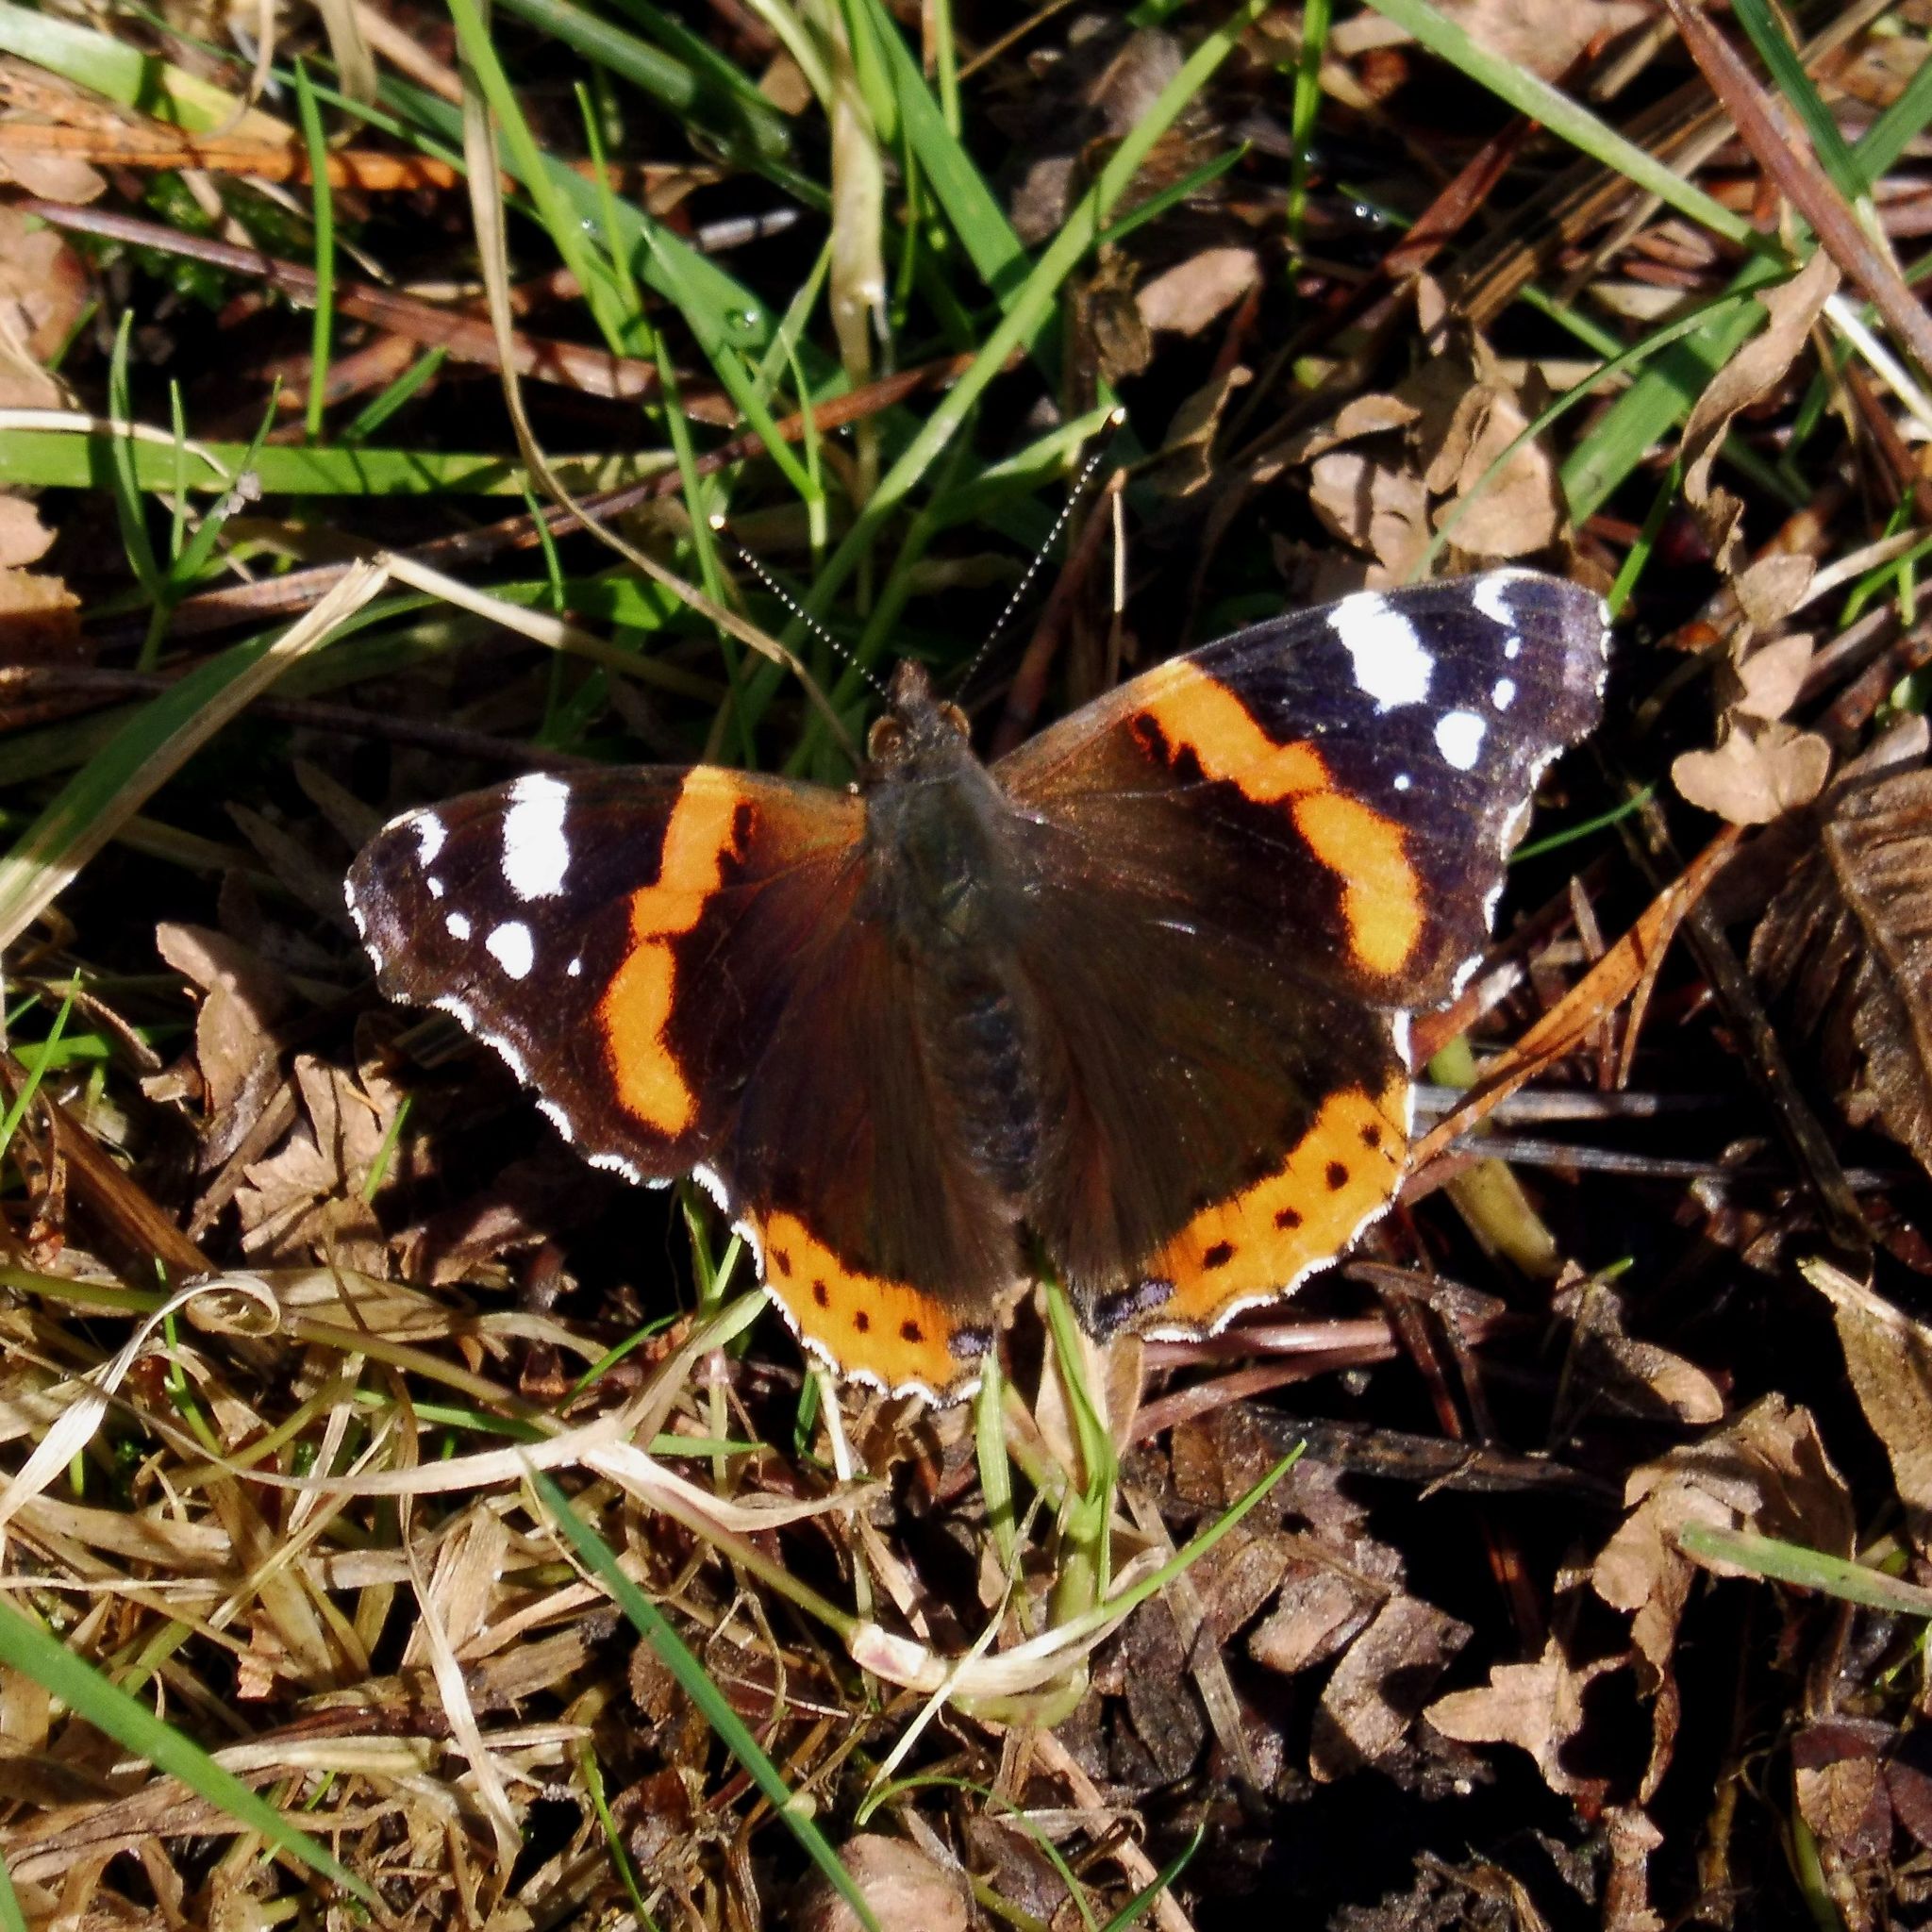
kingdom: Animalia
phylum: Arthropoda
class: Insecta
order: Lepidoptera
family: Nymphalidae
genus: Vanessa
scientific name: Vanessa atalanta
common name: Red admiral
